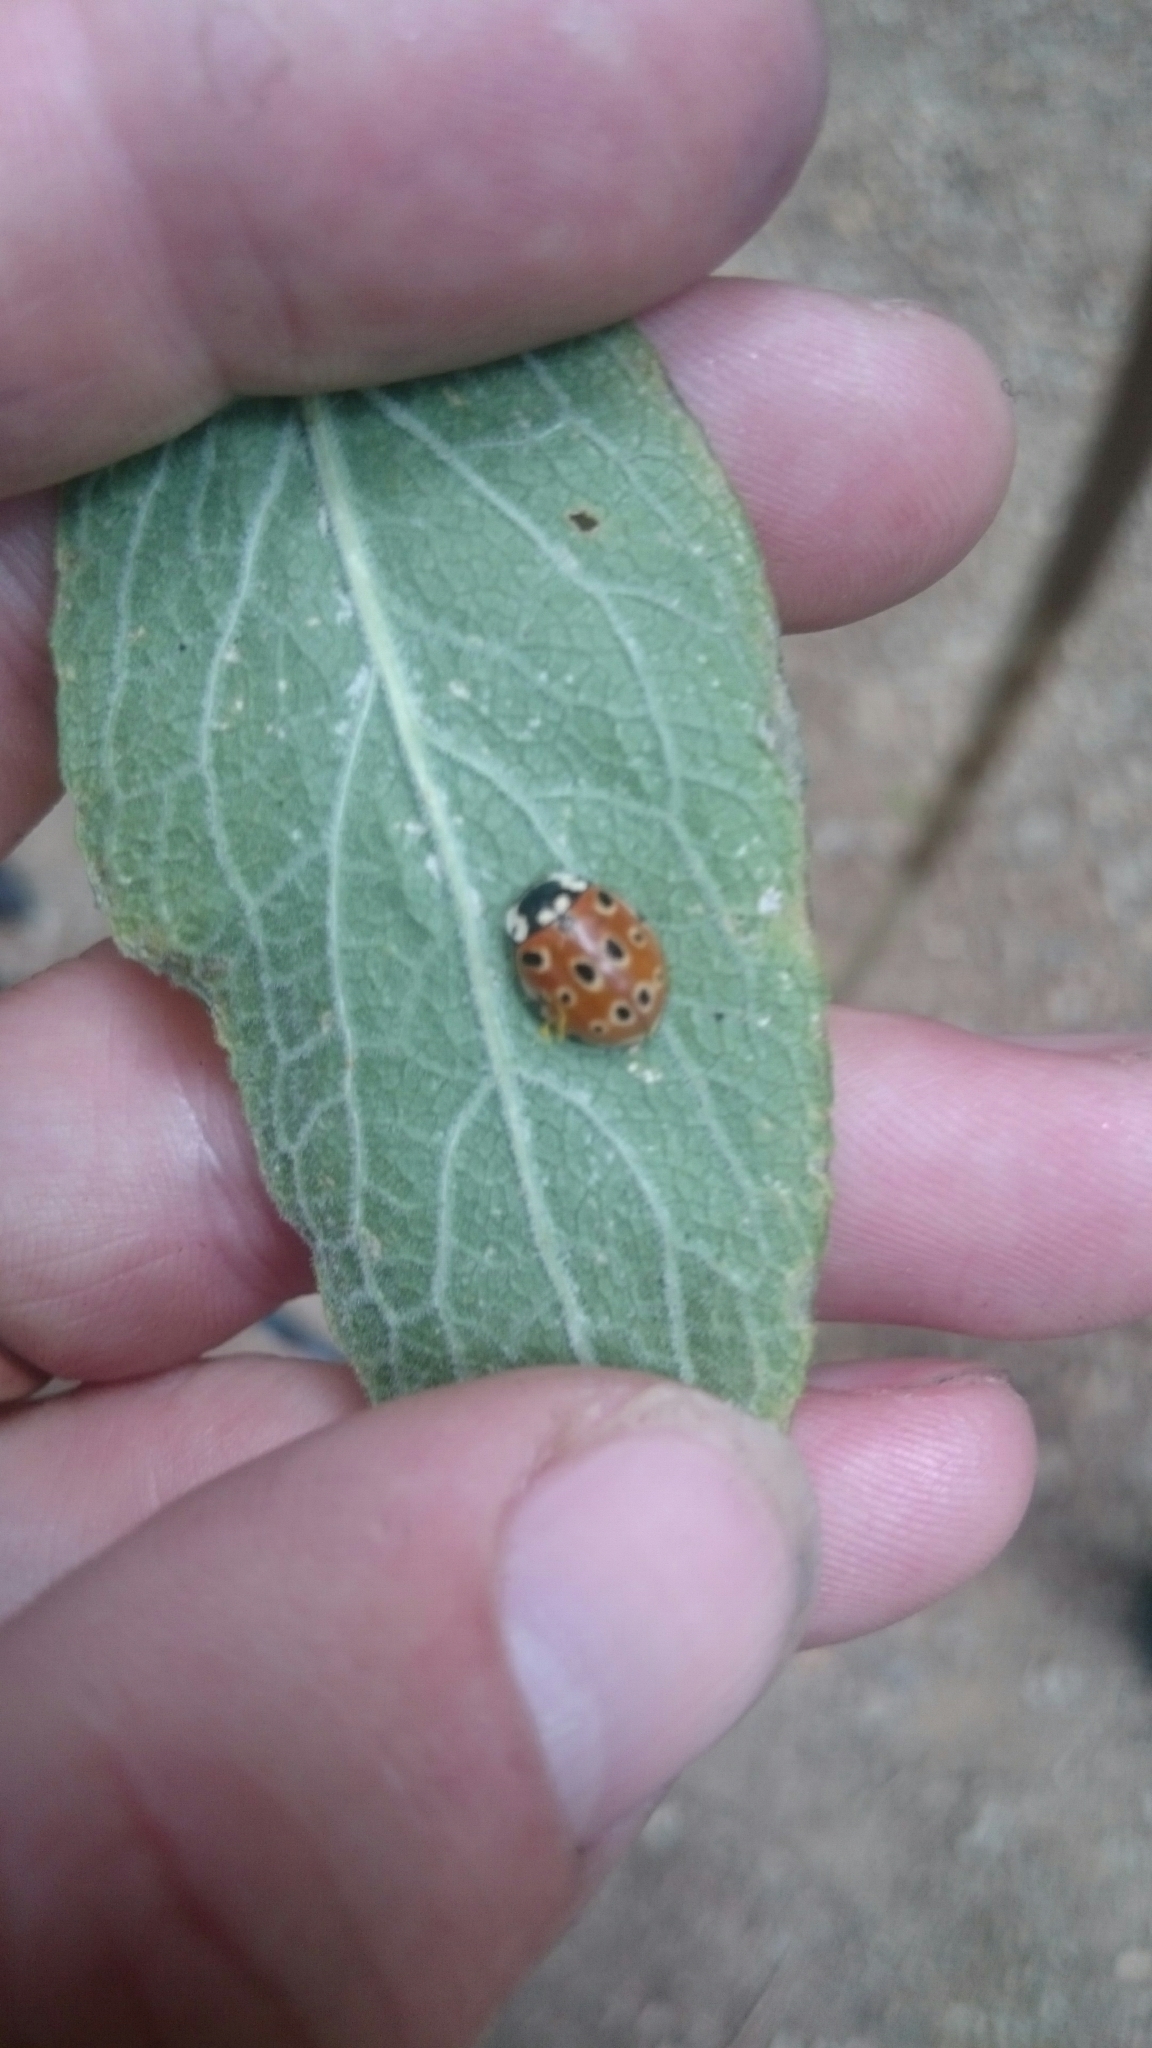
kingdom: Animalia
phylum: Arthropoda
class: Insecta
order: Coleoptera
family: Coccinellidae
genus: Anatis
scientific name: Anatis ocellata
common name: Eyed ladybird
